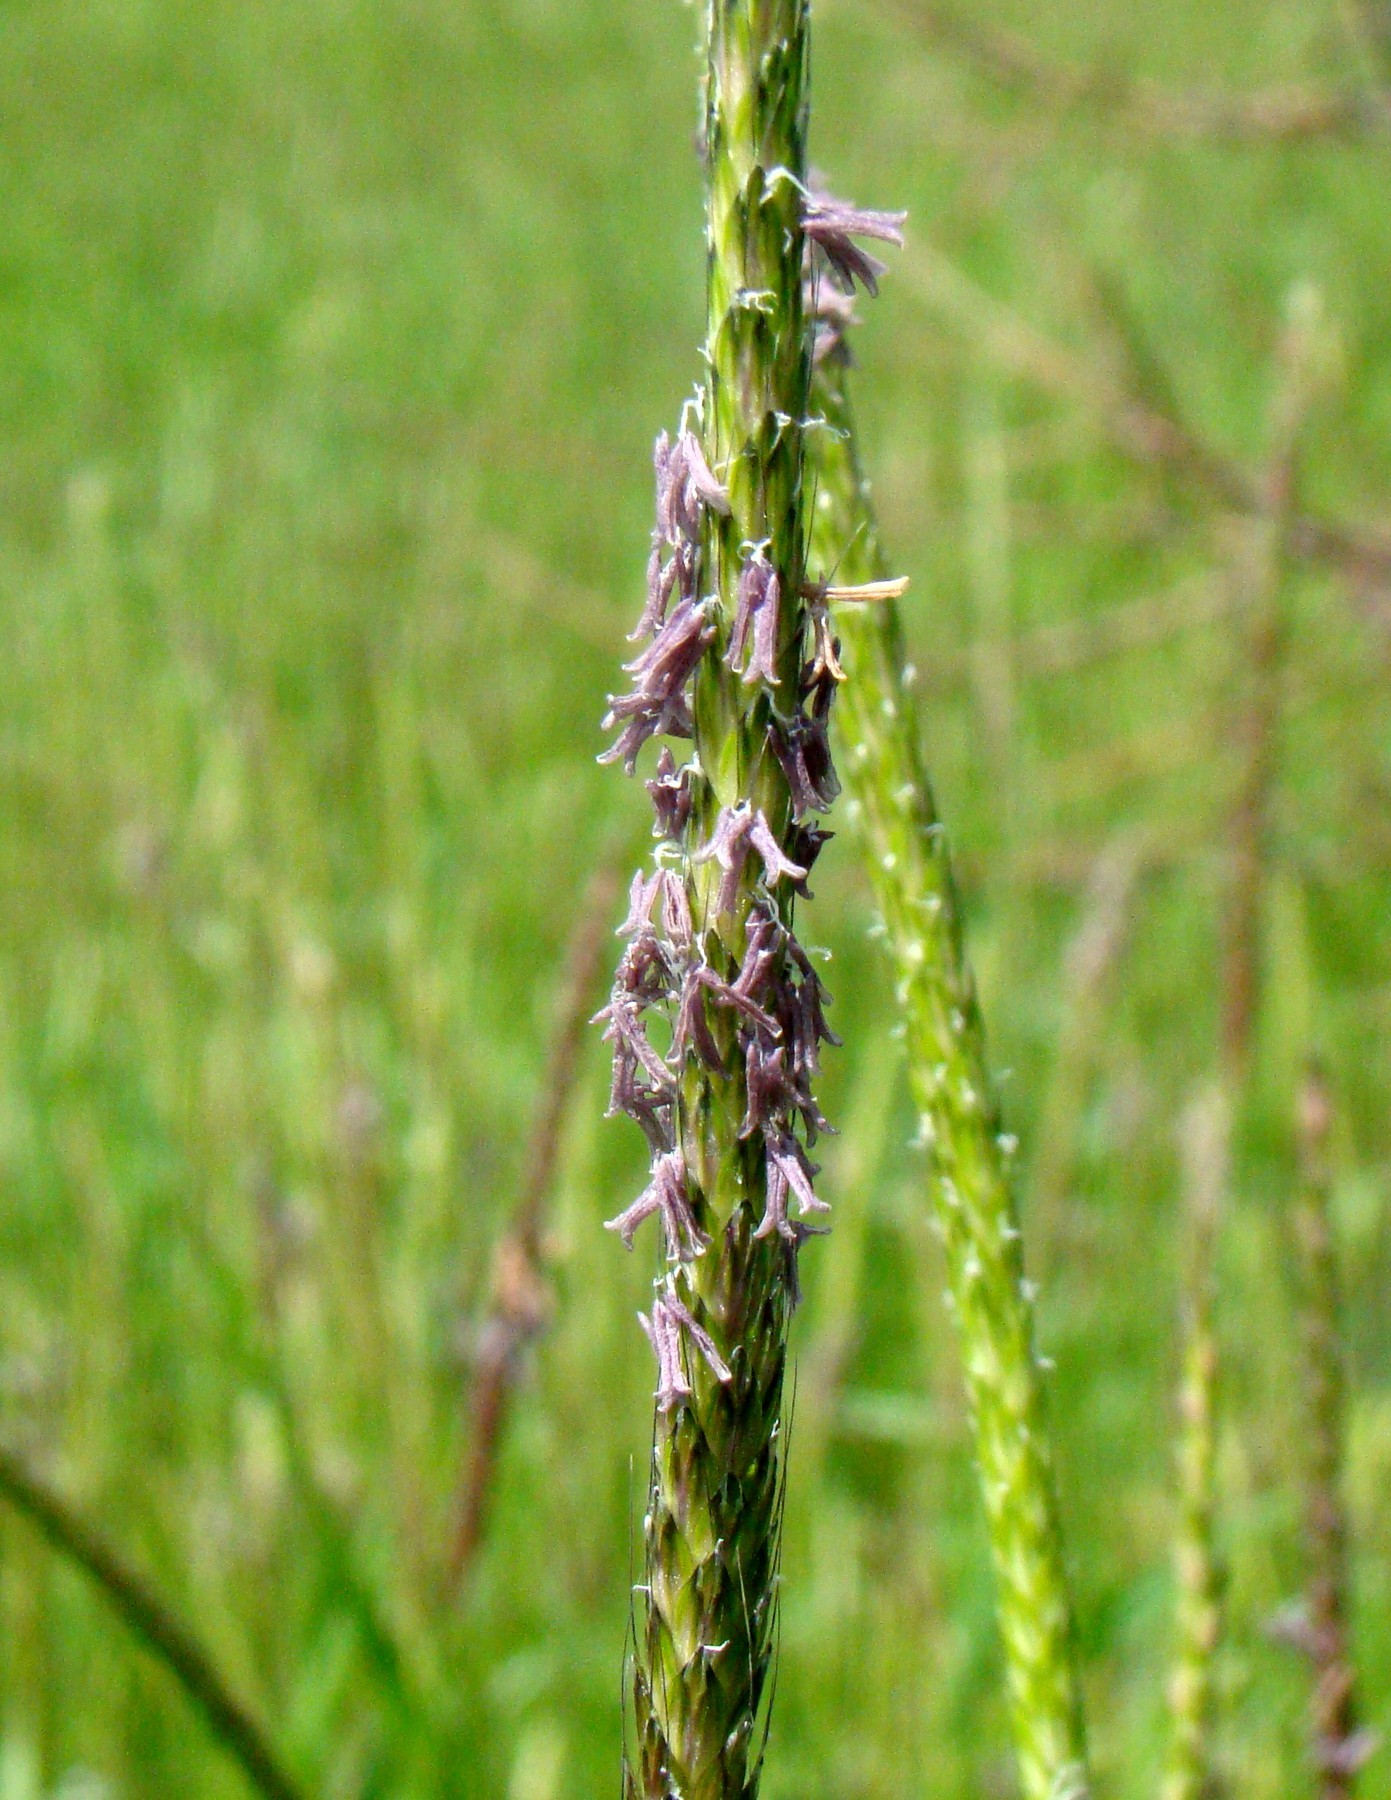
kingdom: Plantae
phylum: Tracheophyta
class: Liliopsida
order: Poales
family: Poaceae
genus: Alopecurus
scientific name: Alopecurus myosuroides
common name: Black-grass
